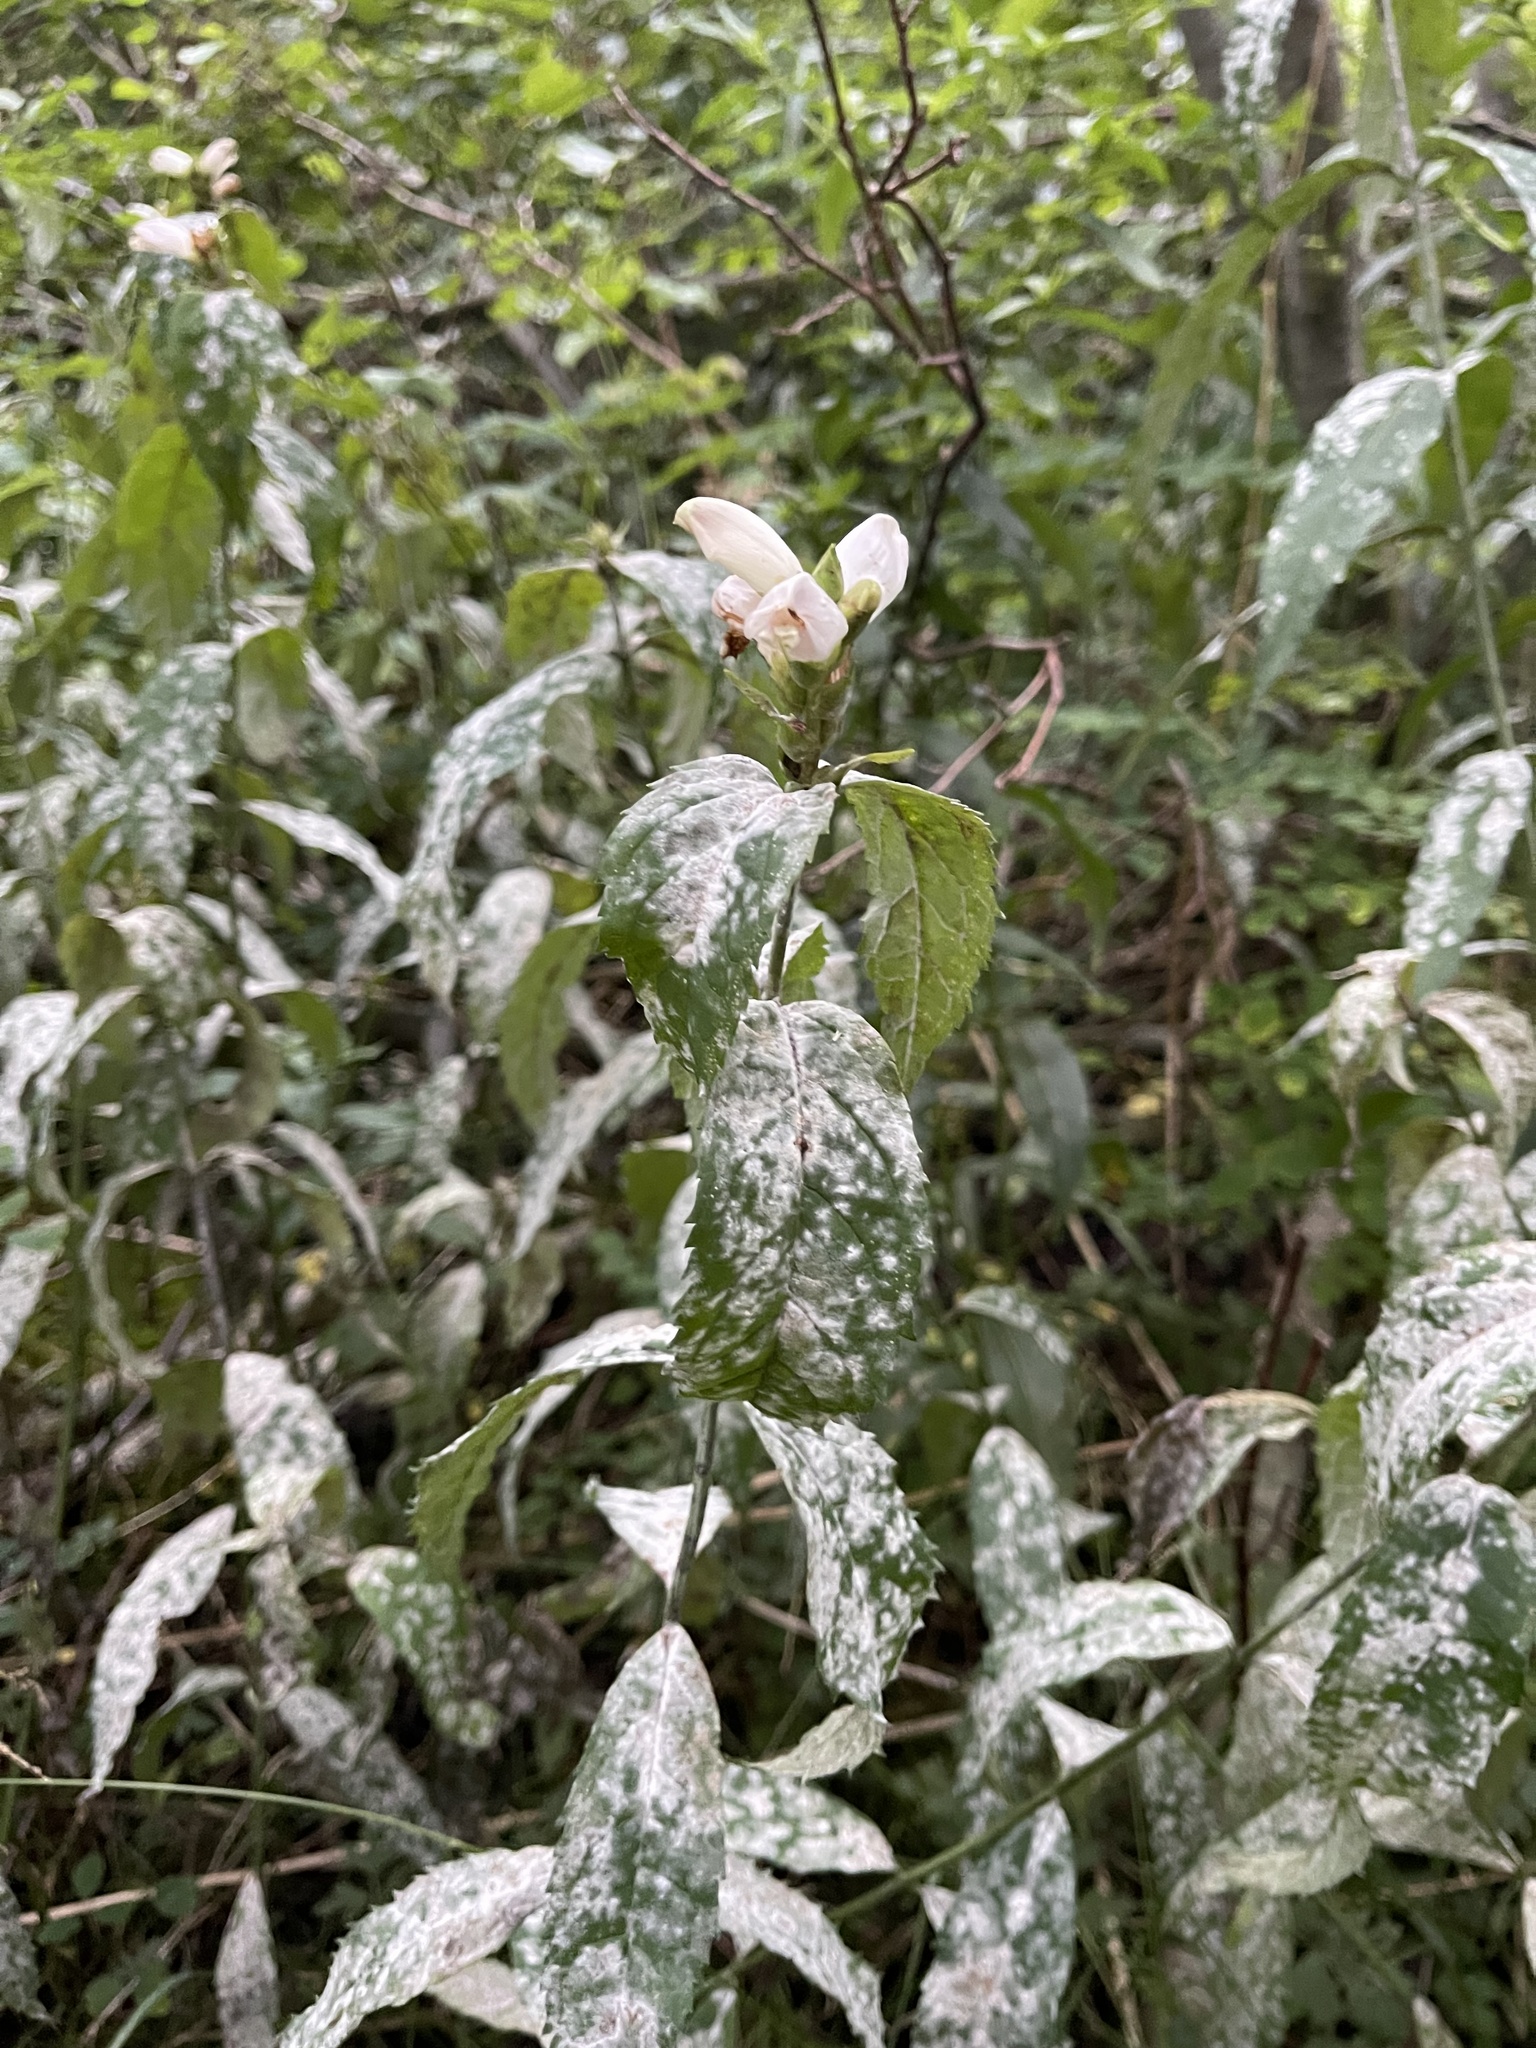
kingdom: Plantae
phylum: Tracheophyta
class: Magnoliopsida
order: Lamiales
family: Plantaginaceae
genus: Chelone
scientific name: Chelone glabra
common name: Snakehead
